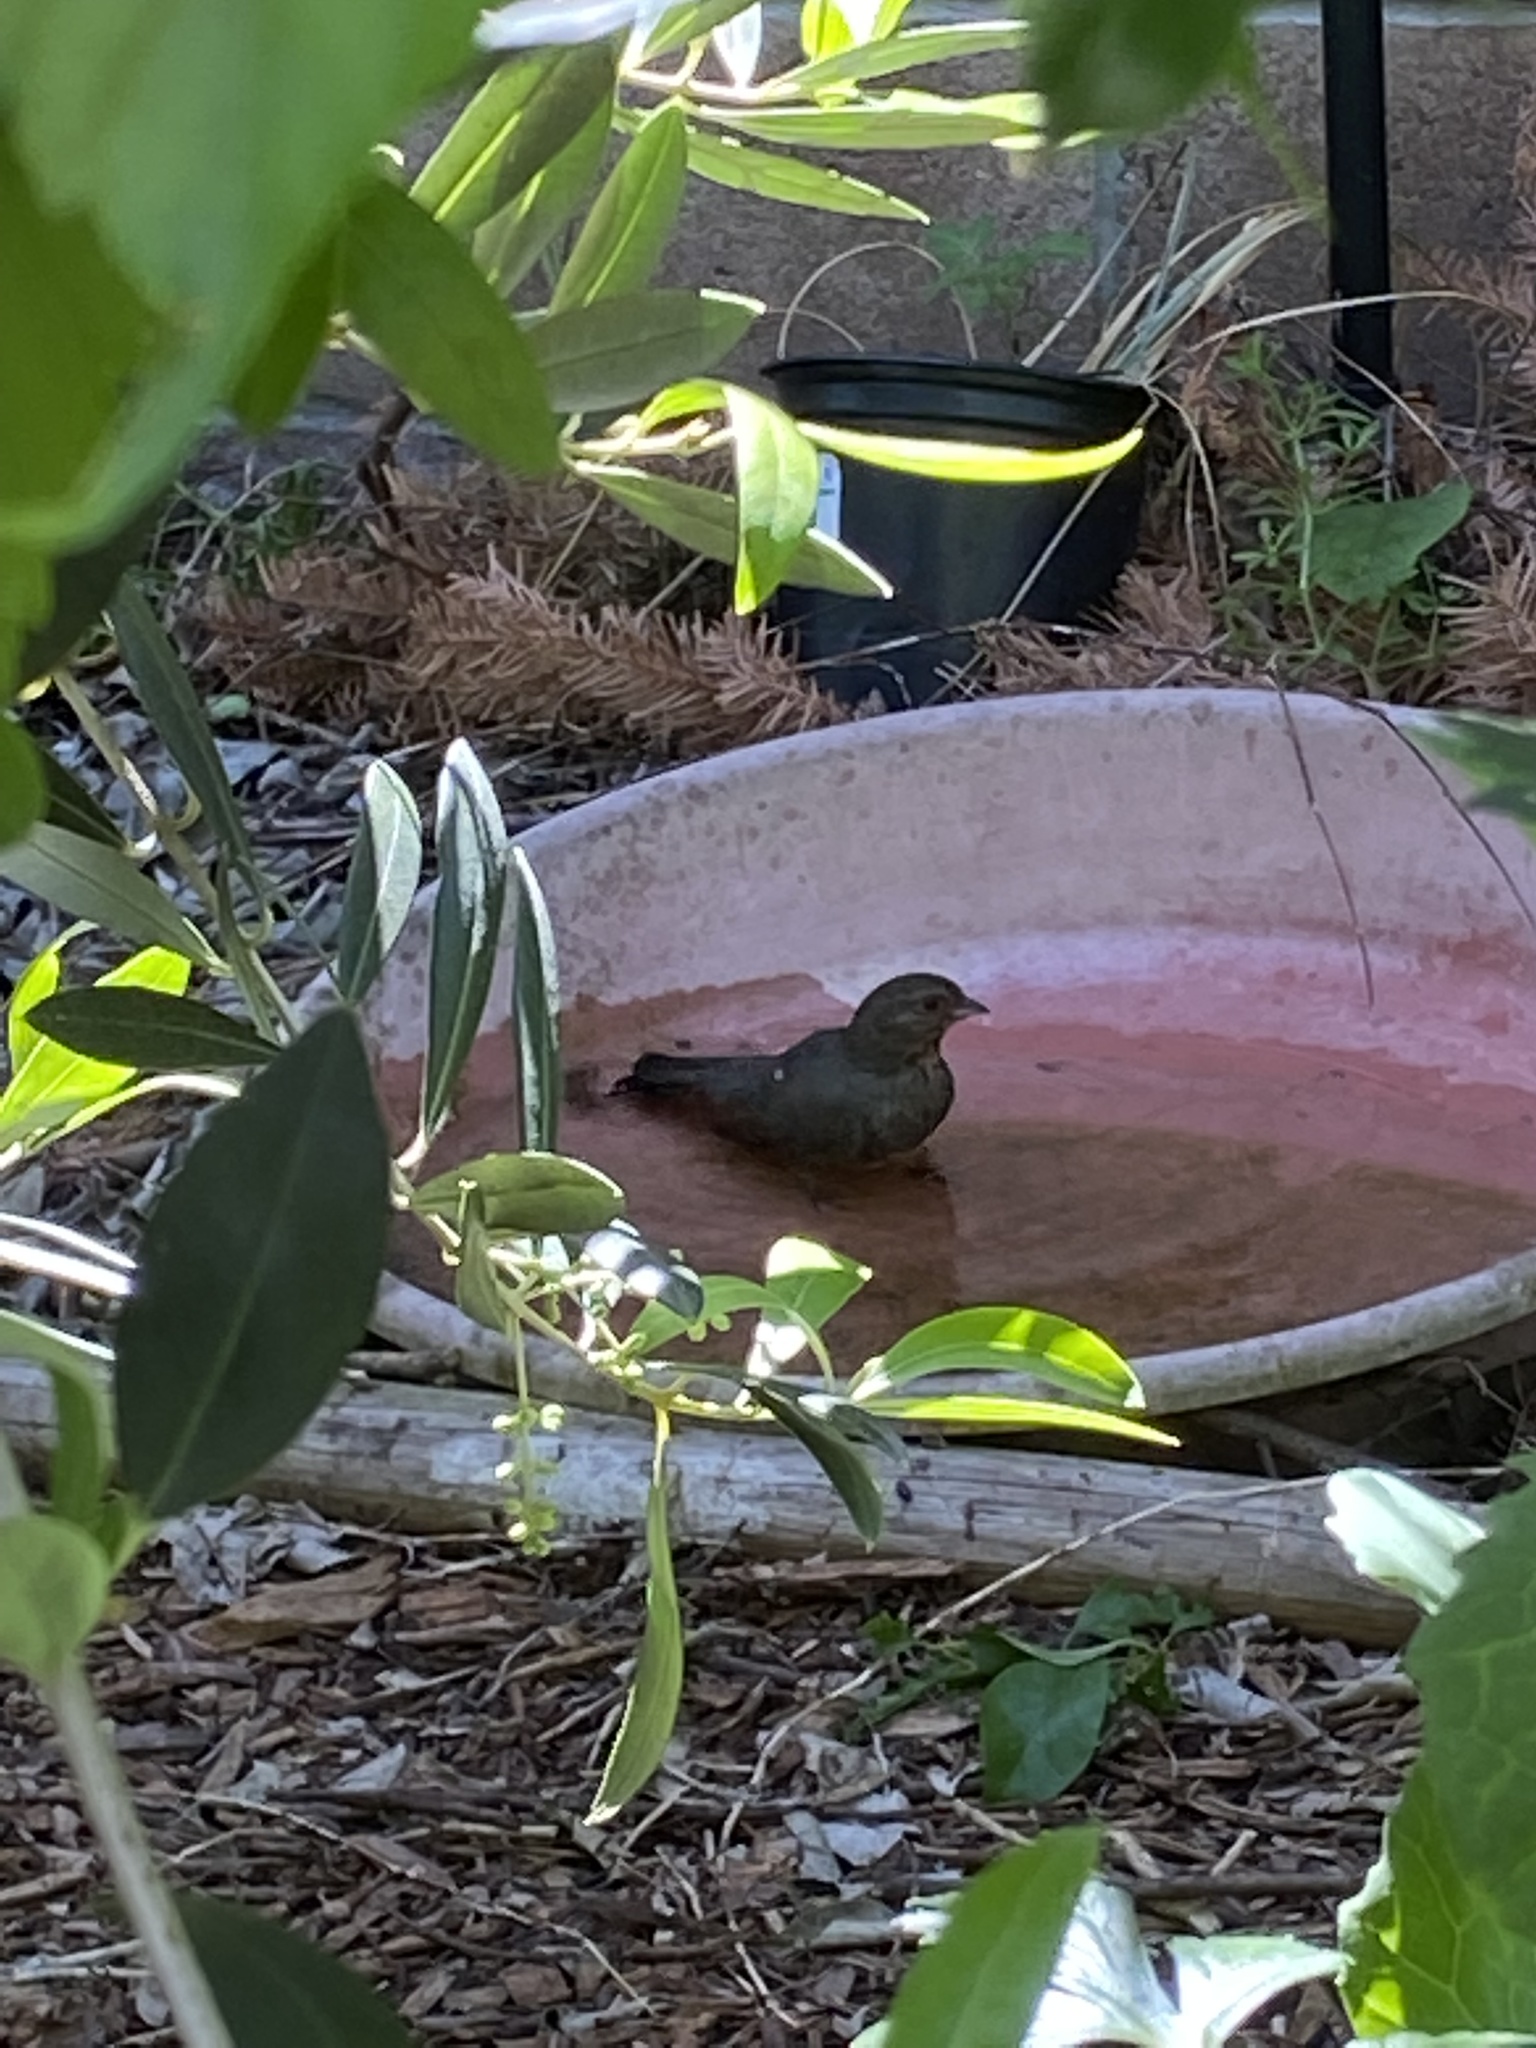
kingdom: Animalia
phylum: Chordata
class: Aves
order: Passeriformes
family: Passerellidae
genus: Melozone
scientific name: Melozone crissalis
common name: California towhee
